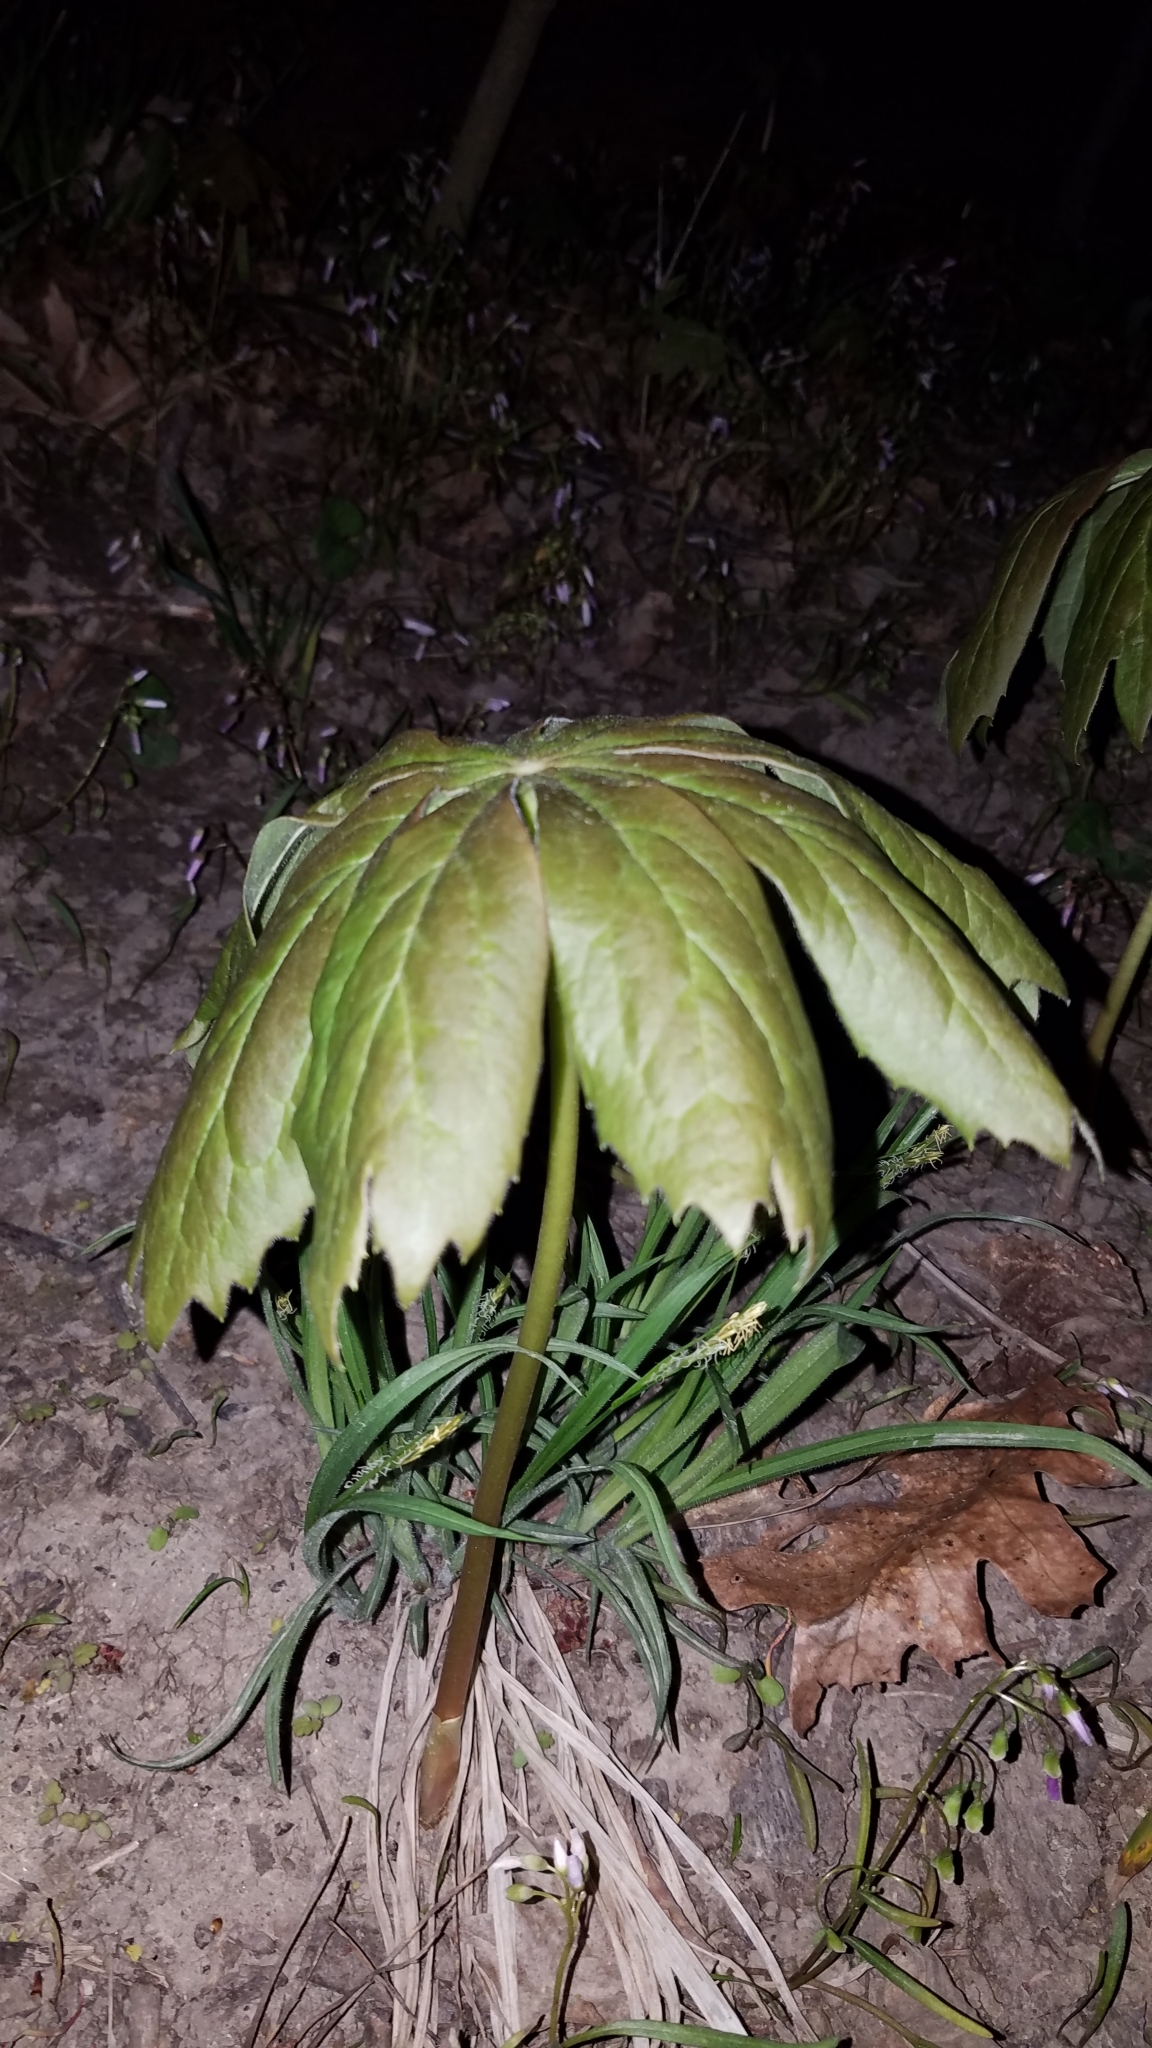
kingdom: Plantae
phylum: Tracheophyta
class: Magnoliopsida
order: Ranunculales
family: Berberidaceae
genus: Podophyllum
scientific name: Podophyllum peltatum
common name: Wild mandrake
